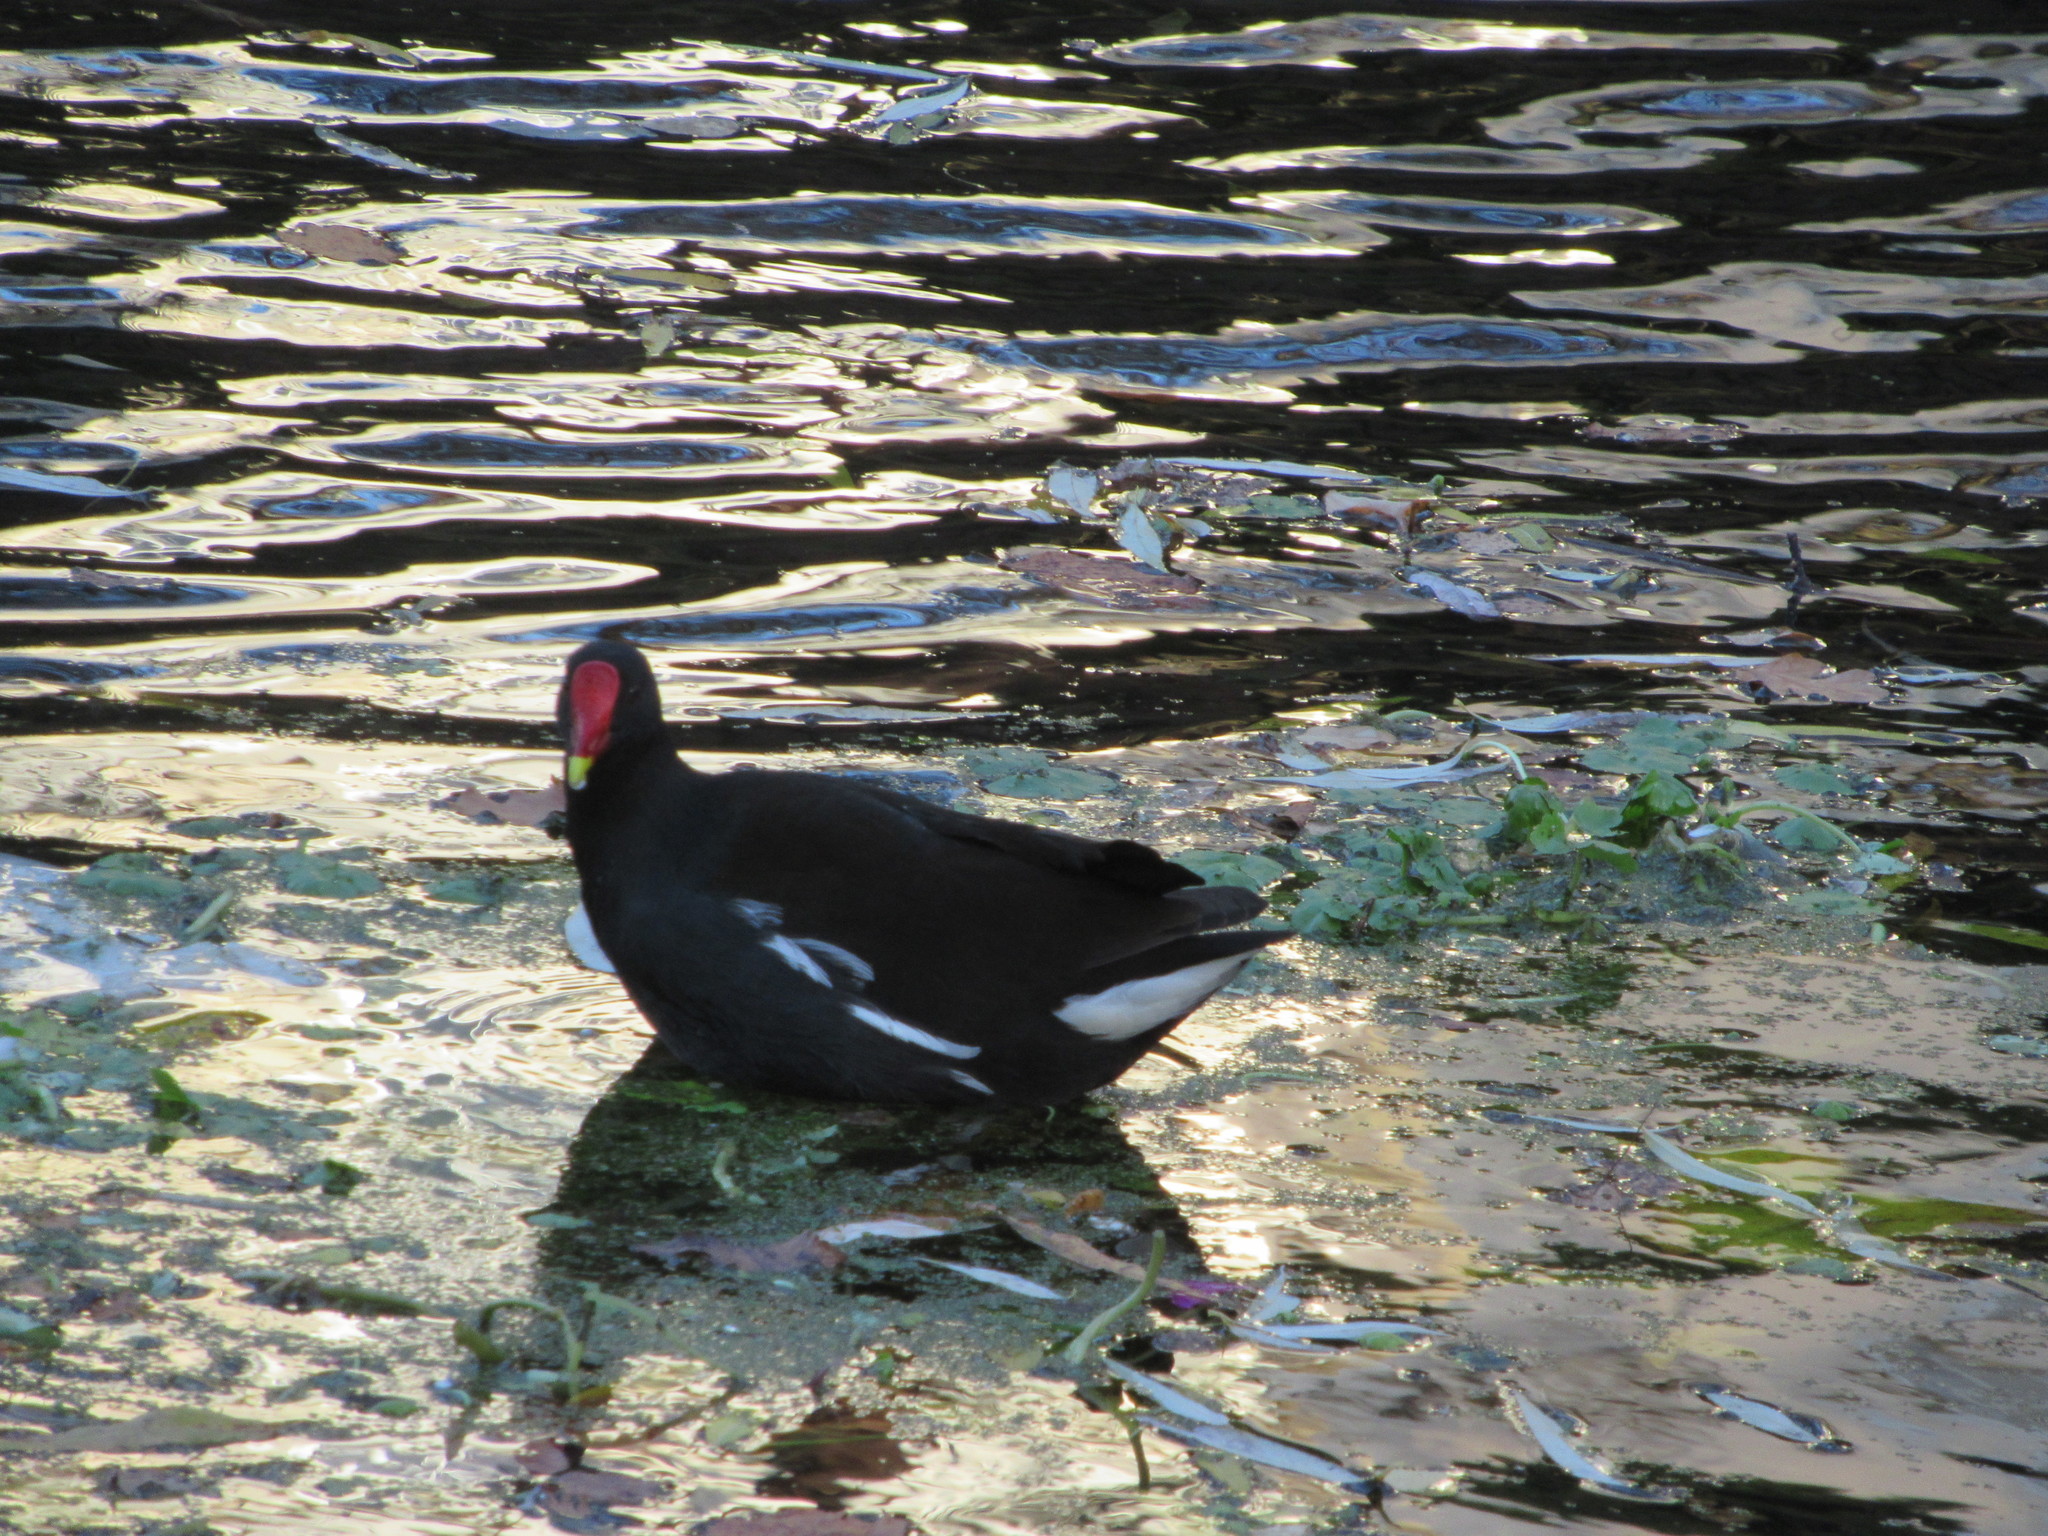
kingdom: Animalia
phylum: Chordata
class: Aves
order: Gruiformes
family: Rallidae
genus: Gallinula
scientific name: Gallinula chloropus
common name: Common moorhen
